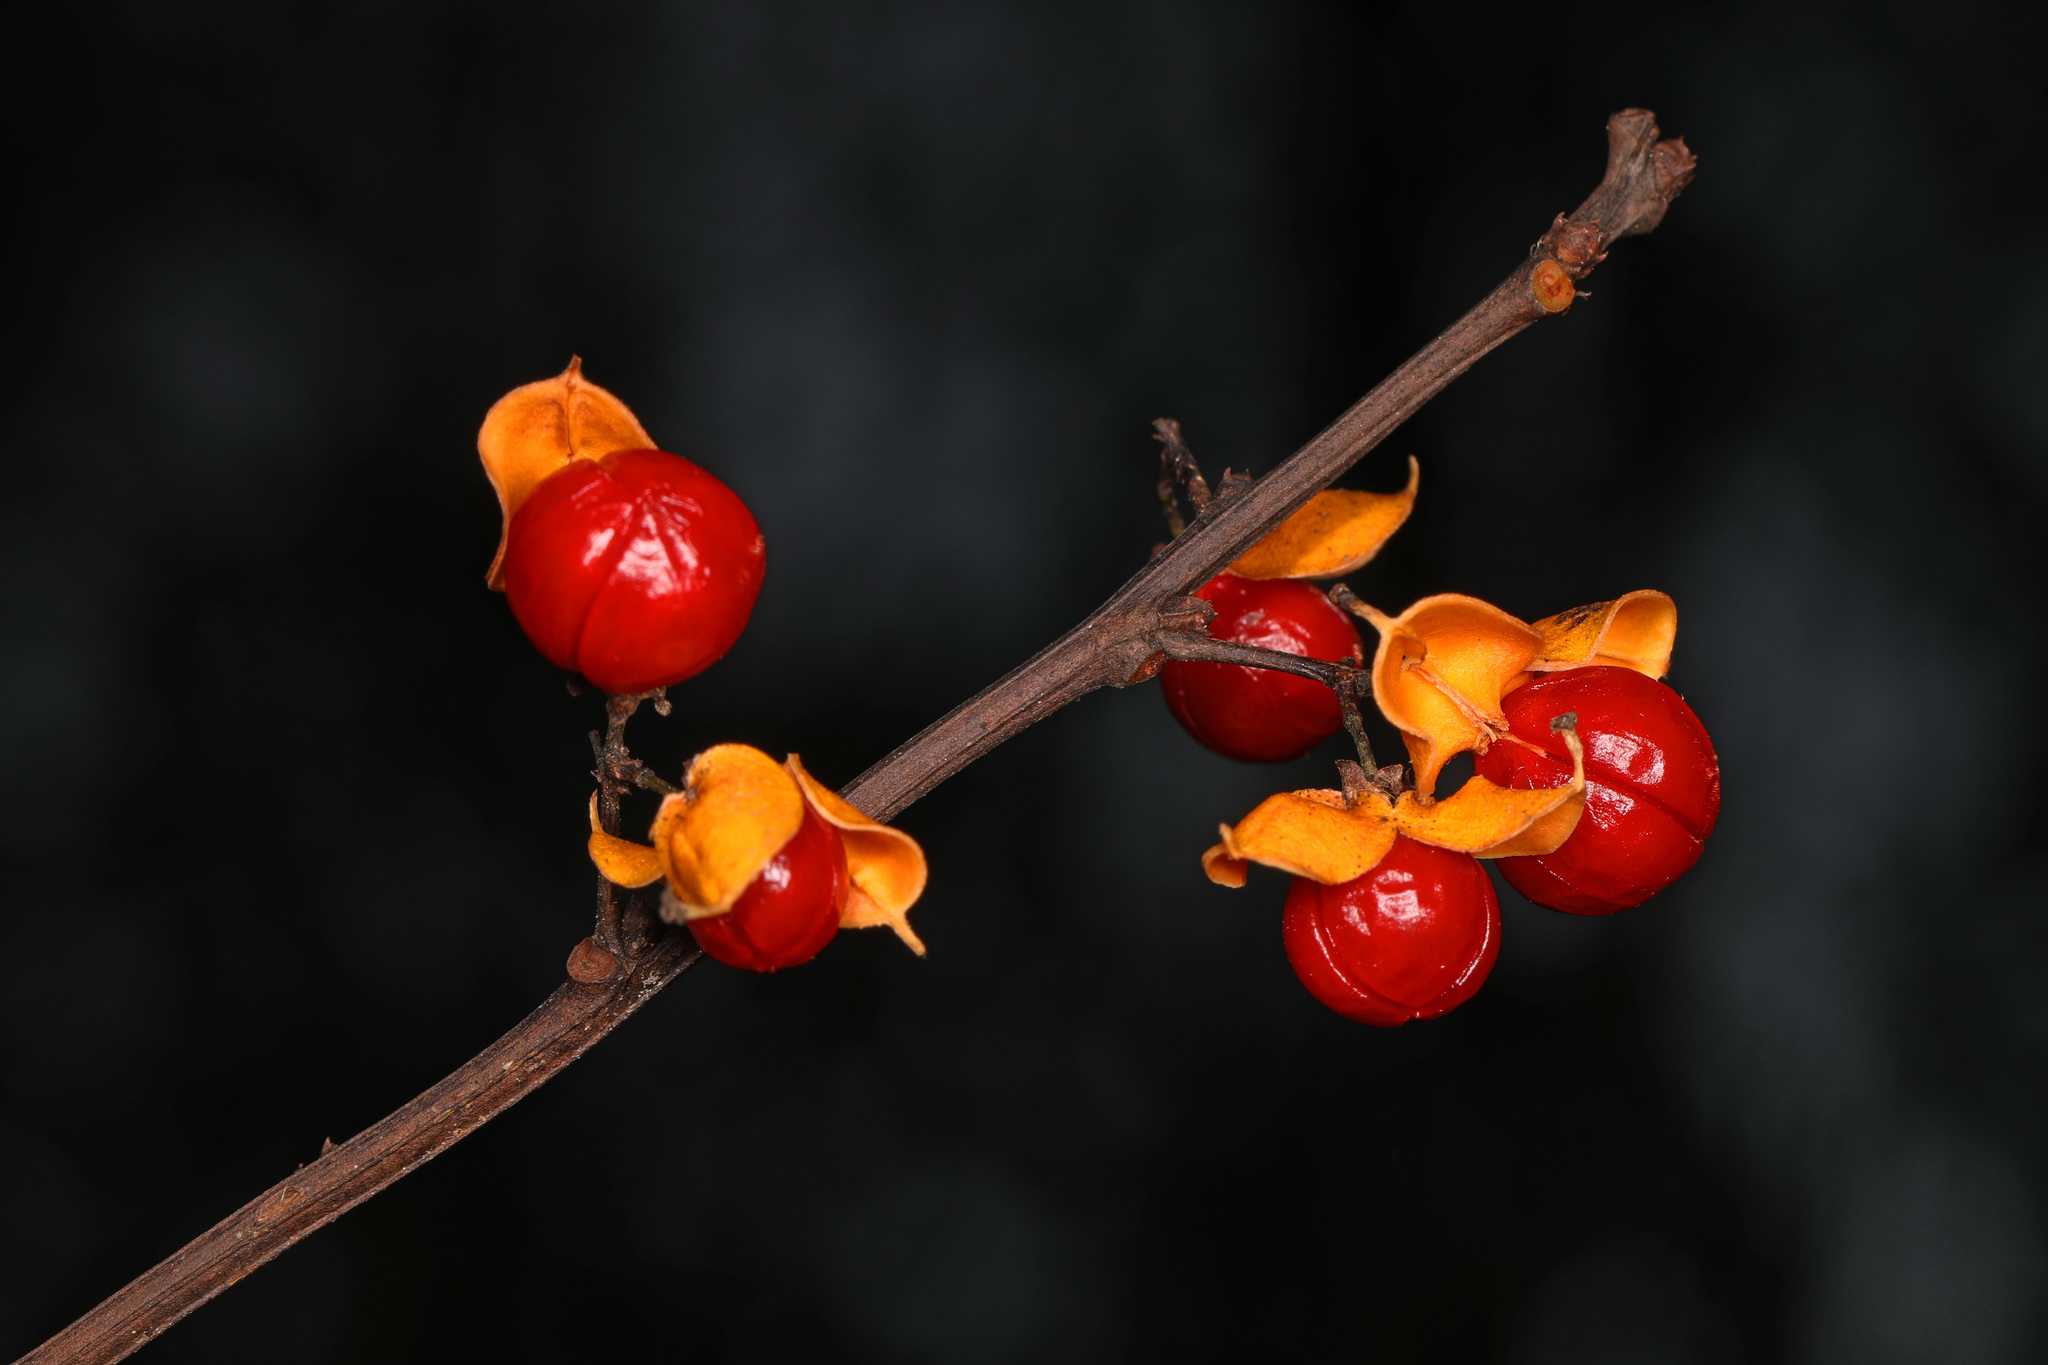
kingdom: Plantae
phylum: Tracheophyta
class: Magnoliopsida
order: Celastrales
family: Celastraceae
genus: Celastrus
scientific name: Celastrus orbiculatus
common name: Oriental bittersweet
